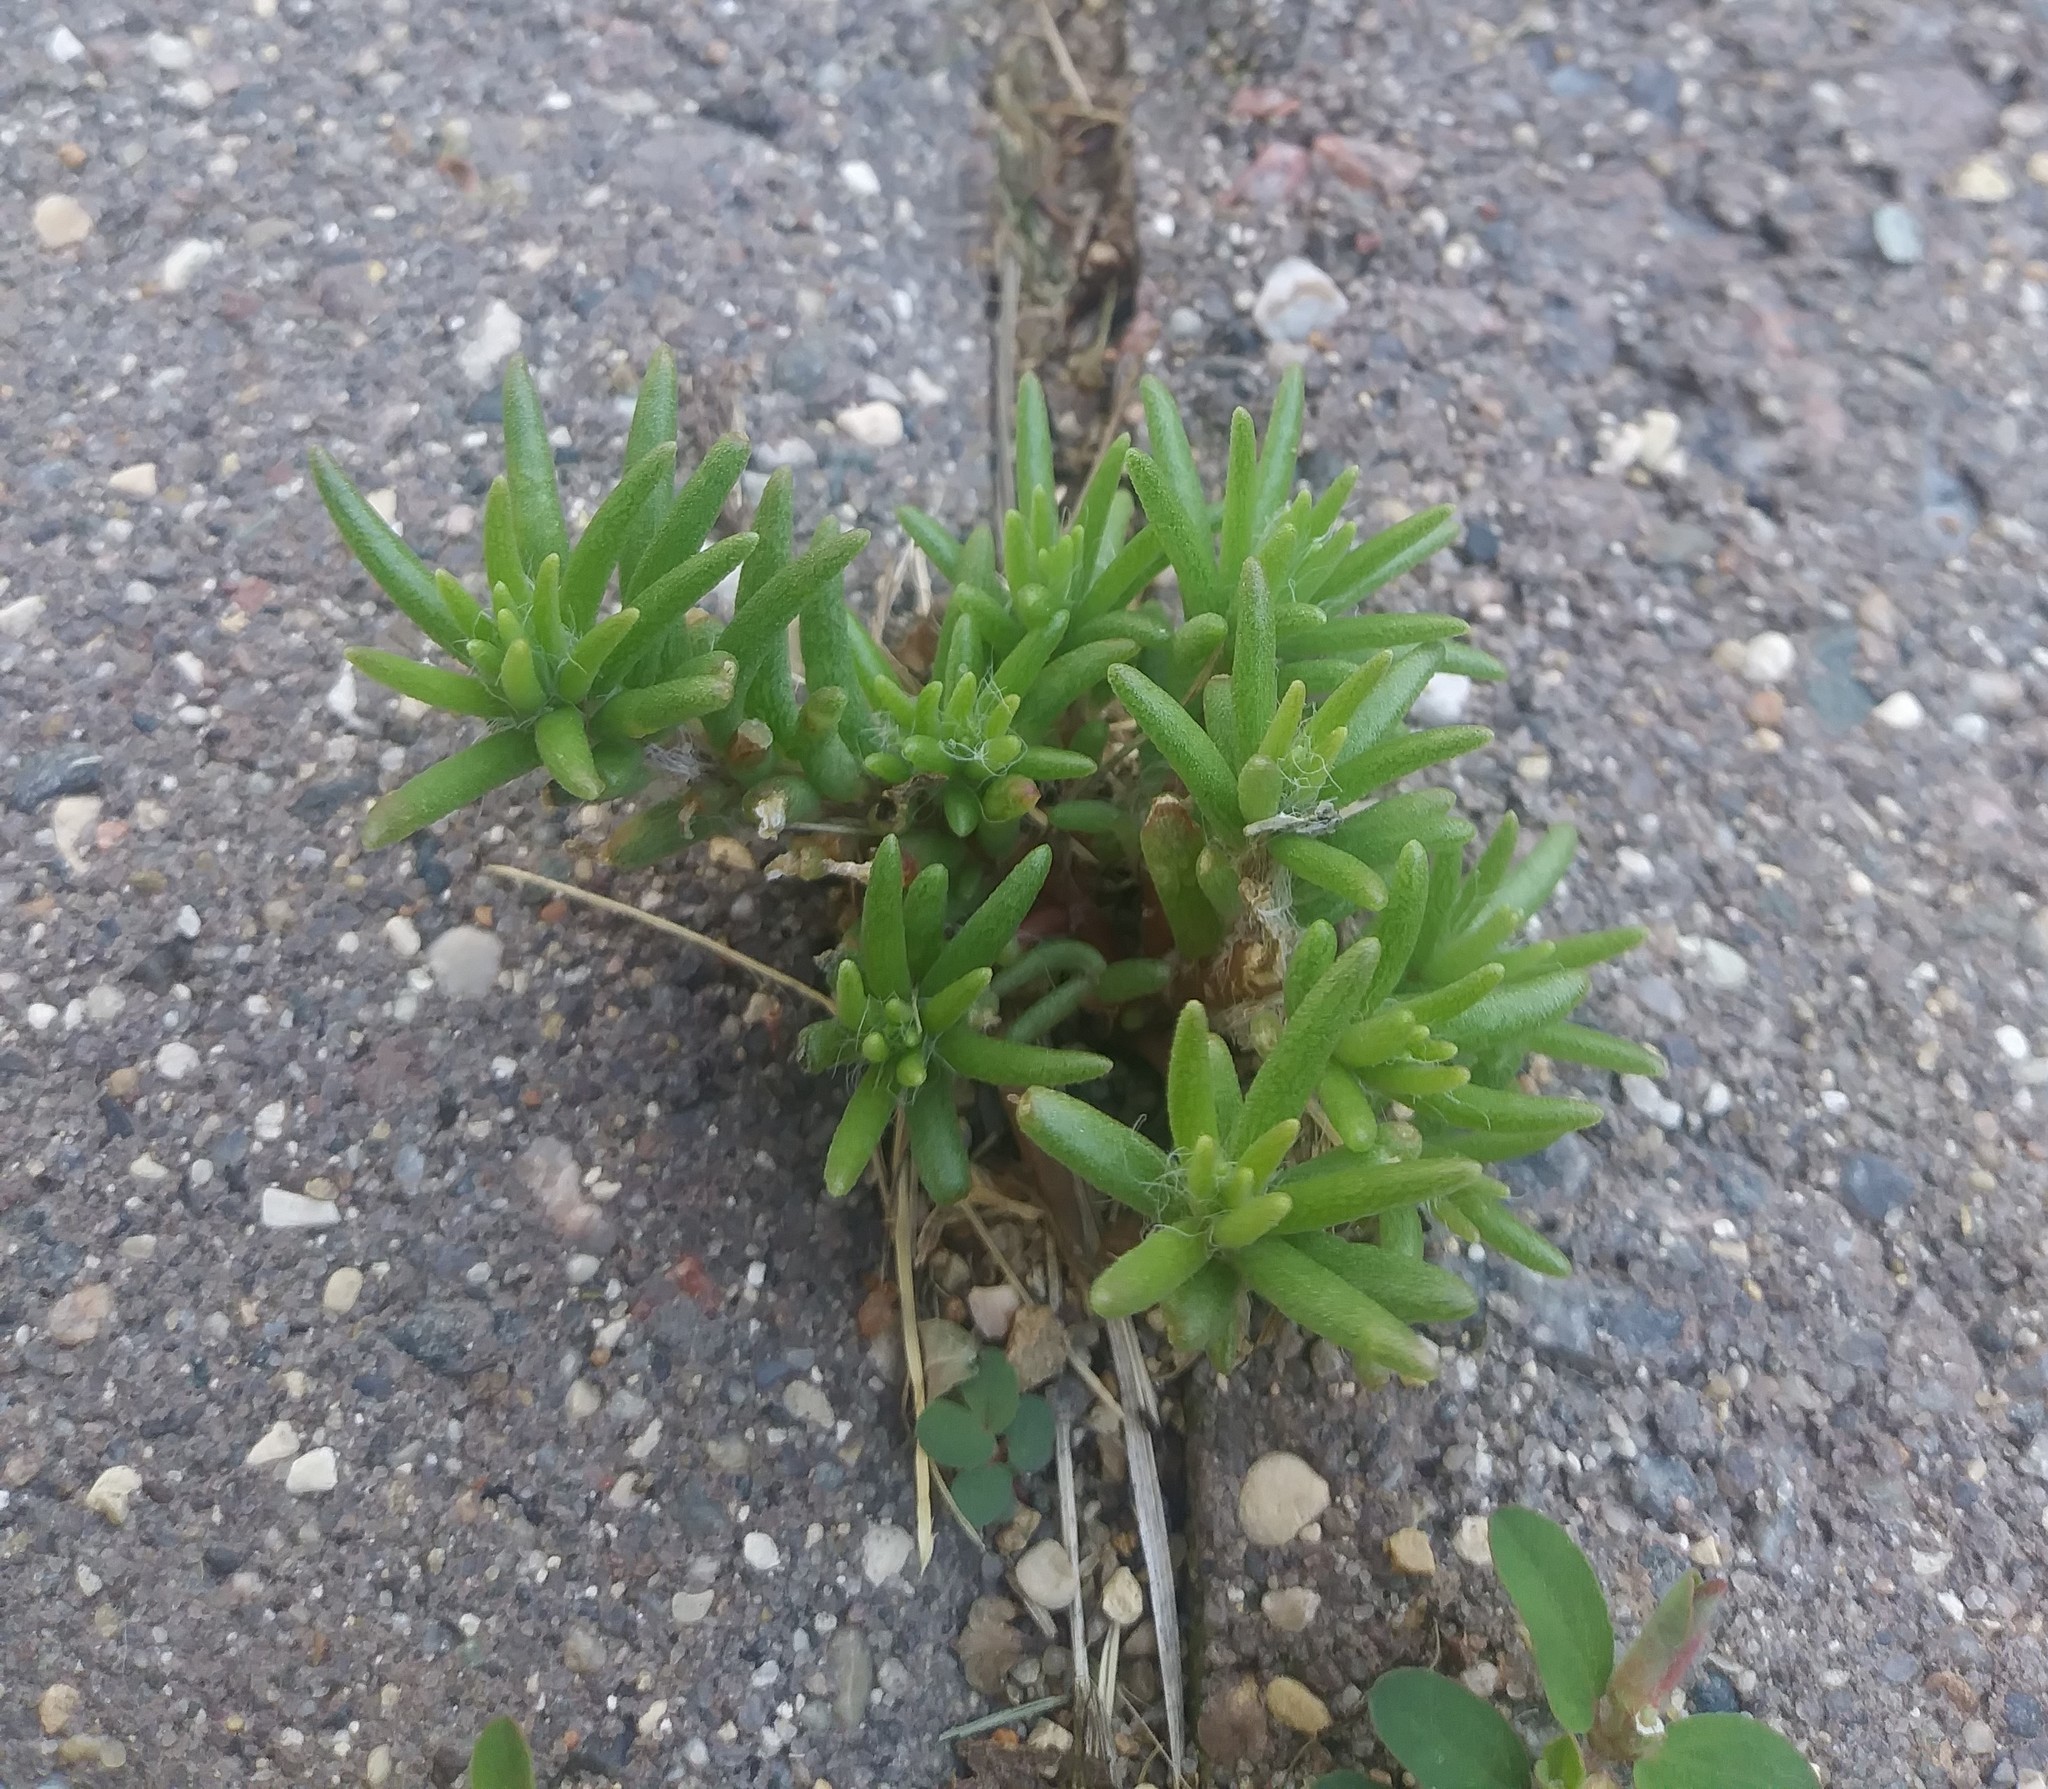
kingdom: Plantae
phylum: Tracheophyta
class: Magnoliopsida
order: Caryophyllales
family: Portulacaceae
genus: Portulaca
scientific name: Portulaca grandiflora
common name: Moss-rose
